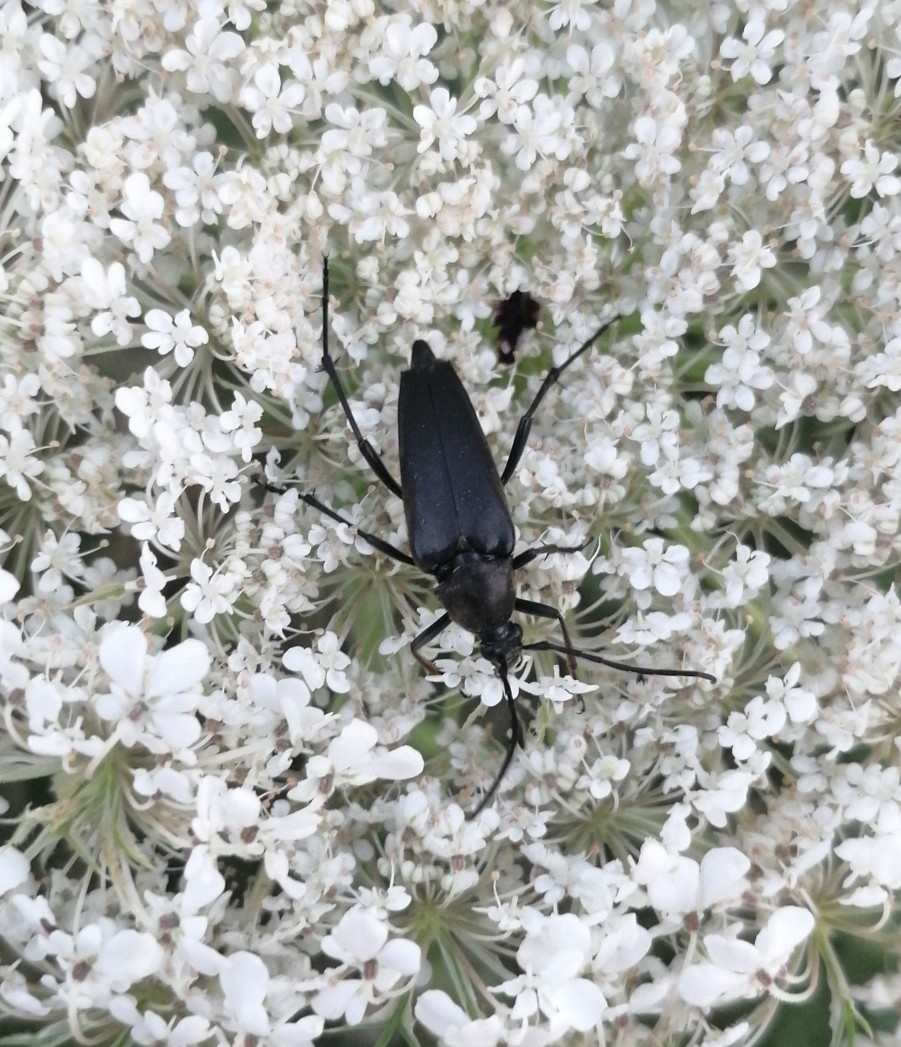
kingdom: Animalia
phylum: Arthropoda
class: Insecta
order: Coleoptera
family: Cerambycidae
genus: Leptura
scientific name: Leptura aethiops
